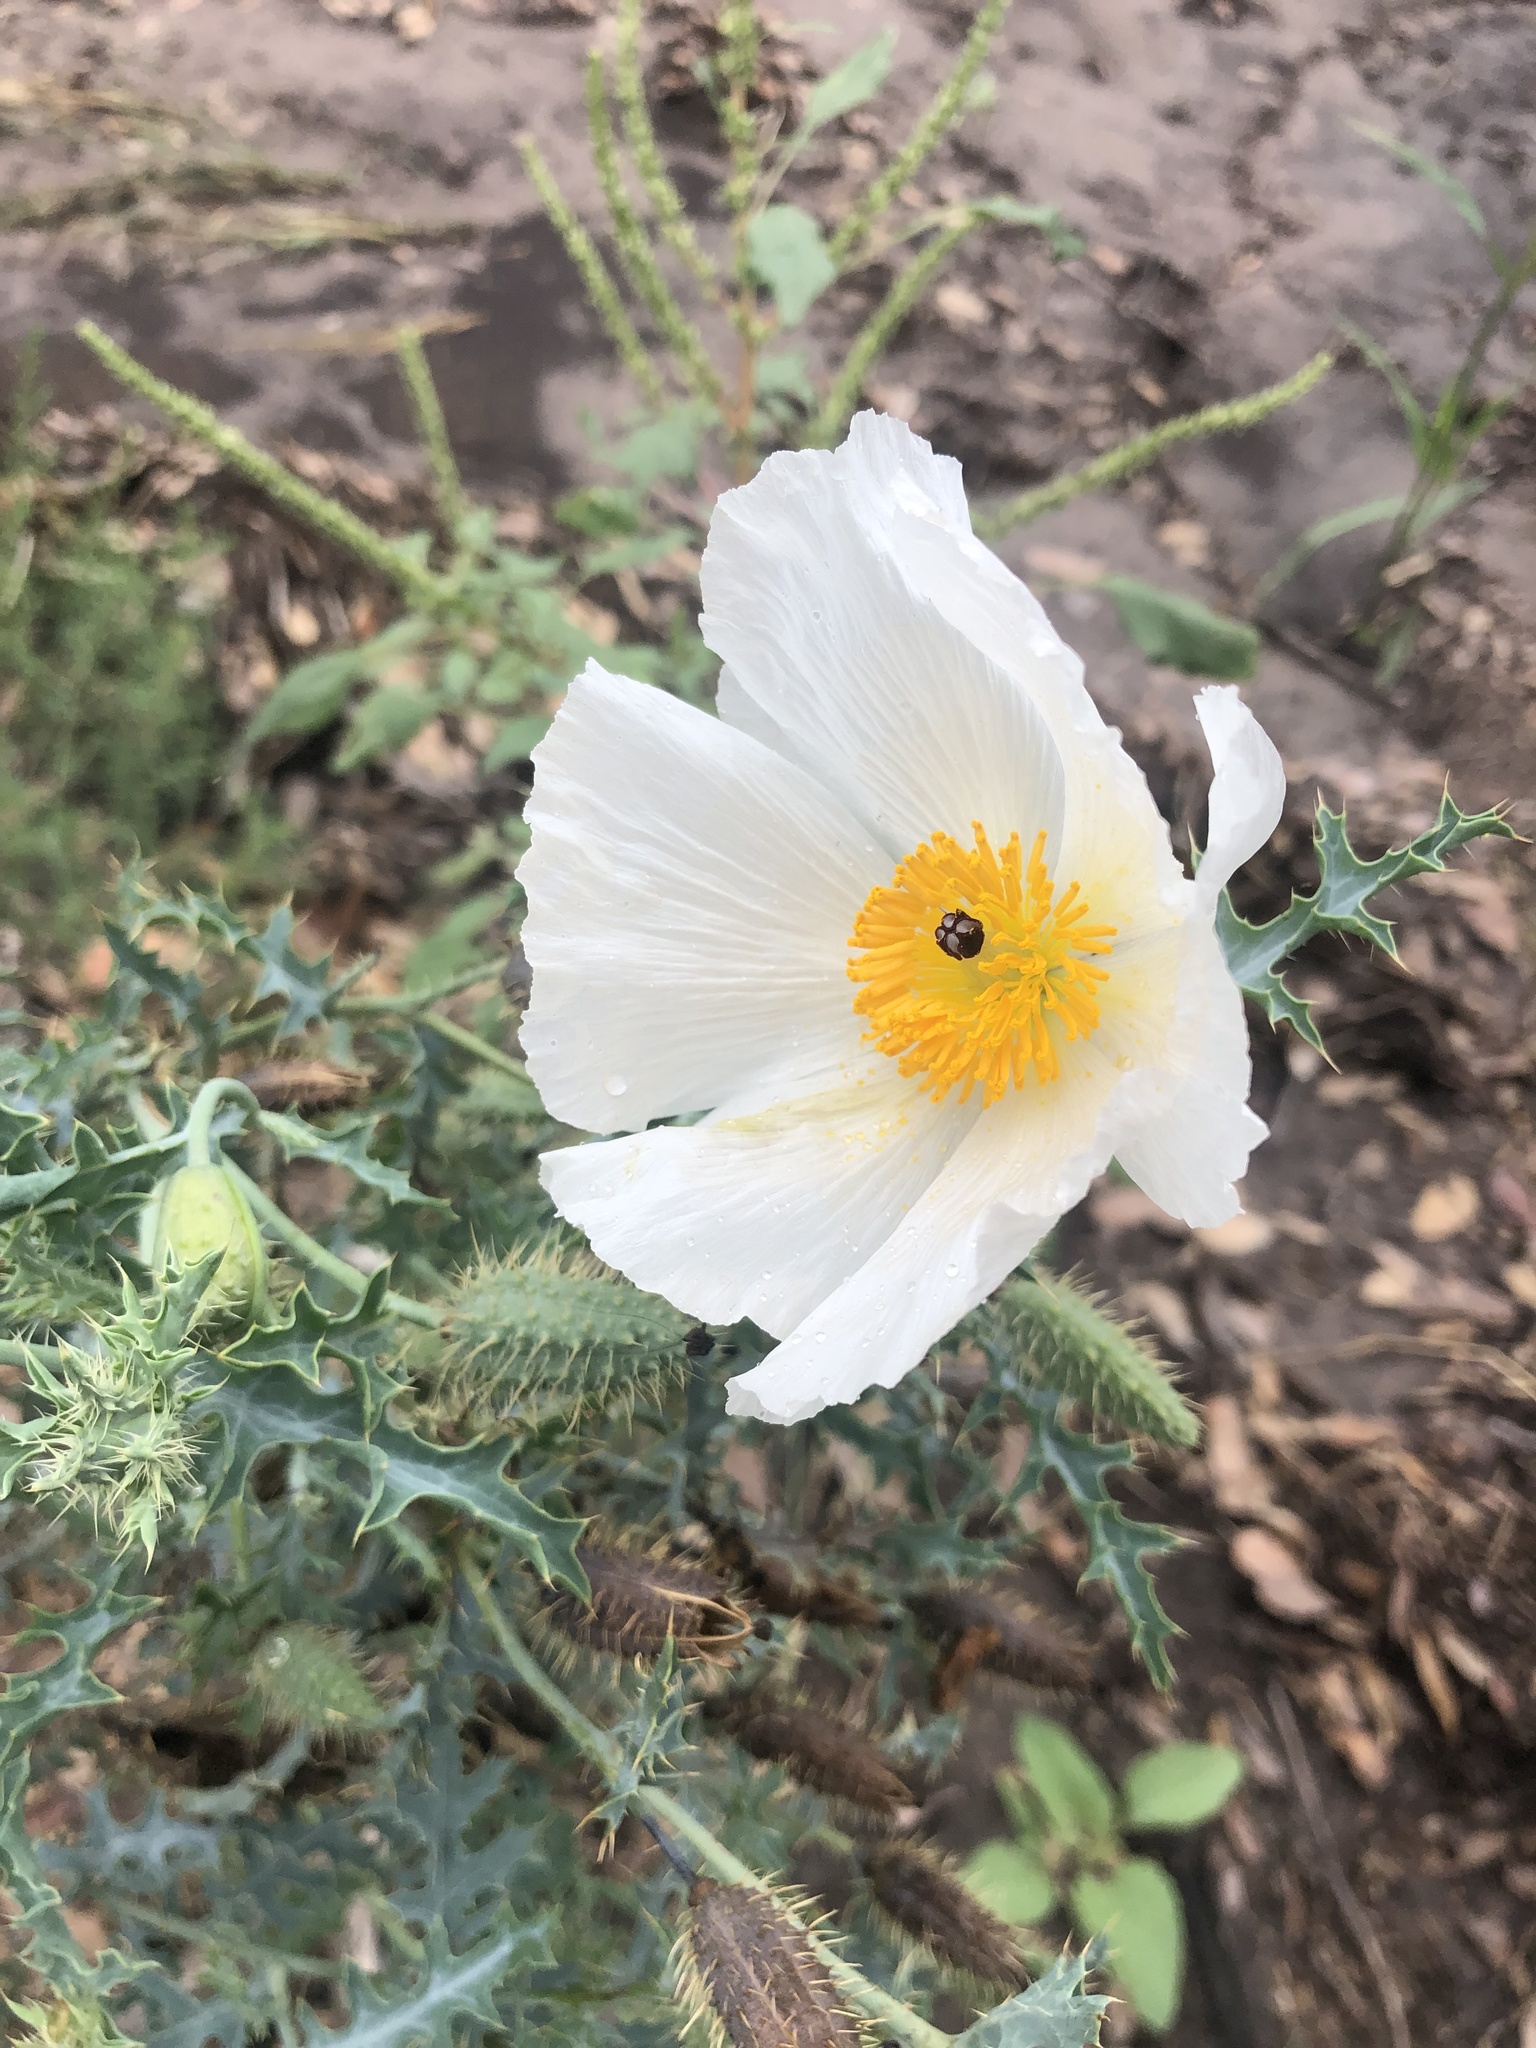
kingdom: Plantae
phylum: Tracheophyta
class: Magnoliopsida
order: Ranunculales
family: Papaveraceae
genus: Argemone
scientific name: Argemone pleiacantha
